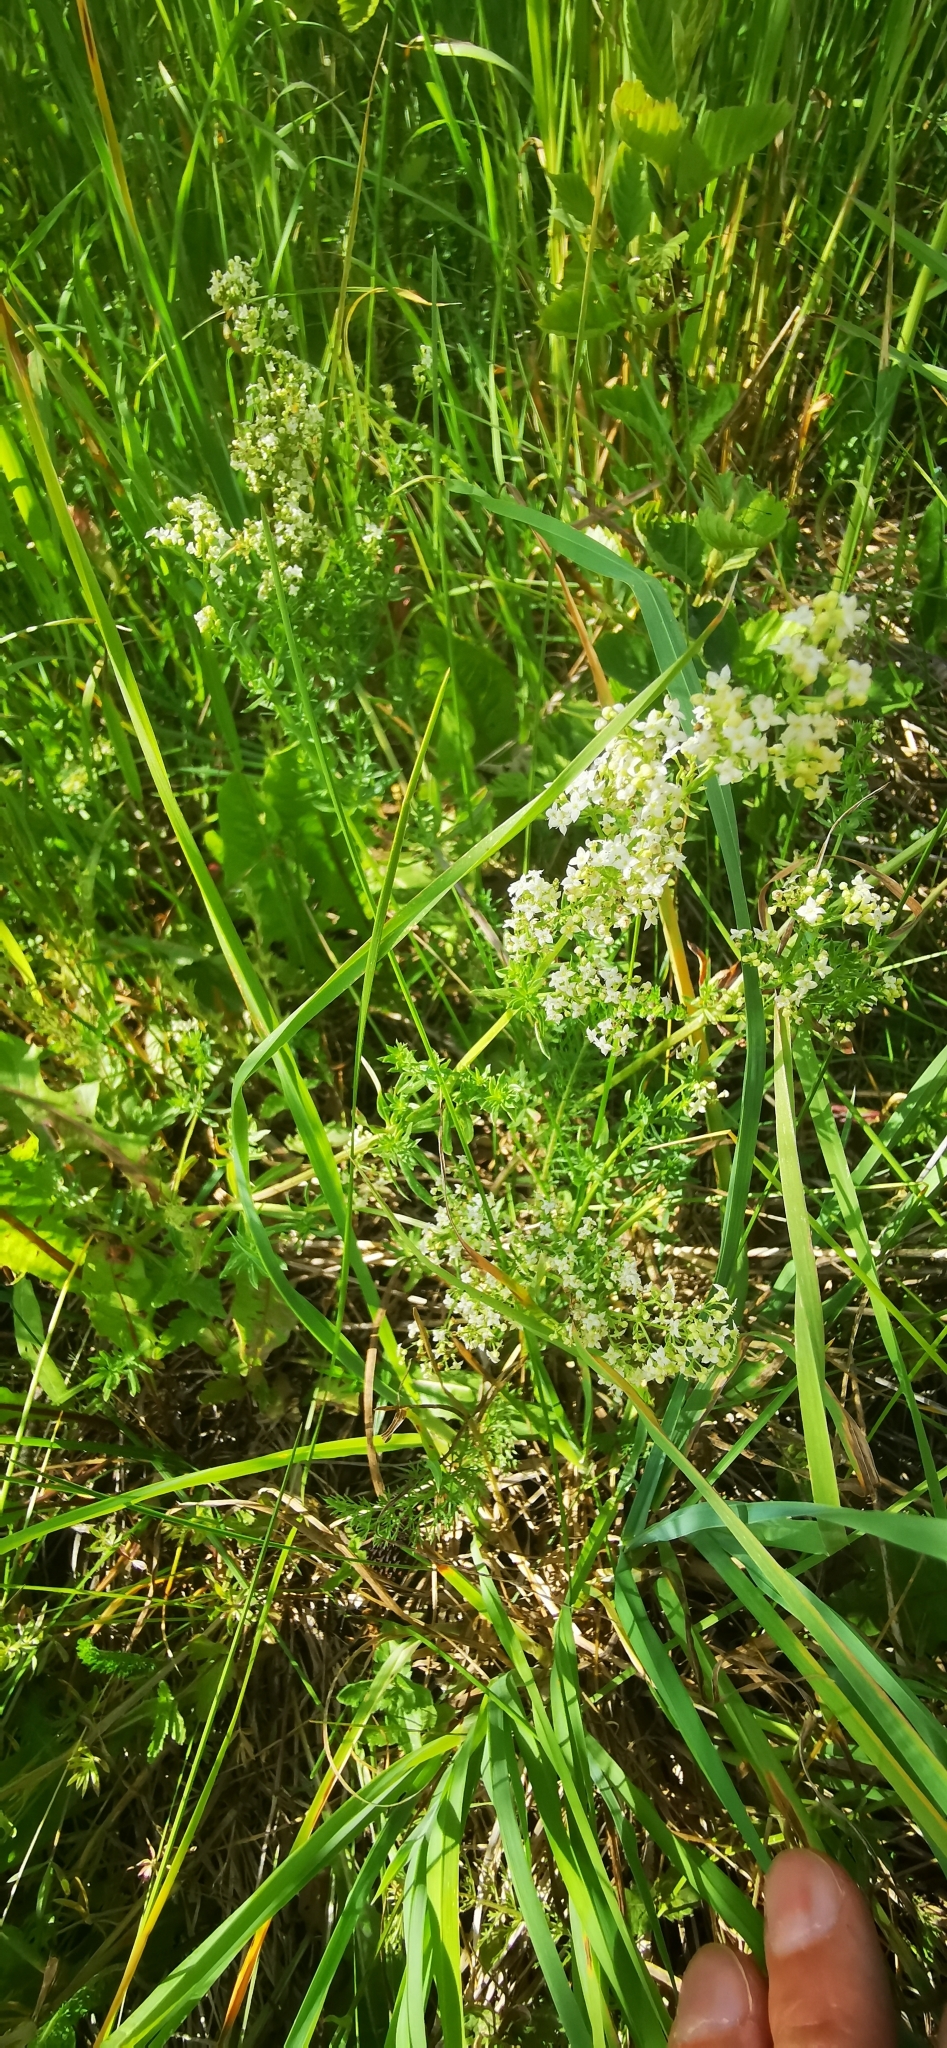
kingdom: Plantae
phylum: Tracheophyta
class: Magnoliopsida
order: Gentianales
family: Rubiaceae
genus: Galium
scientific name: Galium album
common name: White bedstraw
